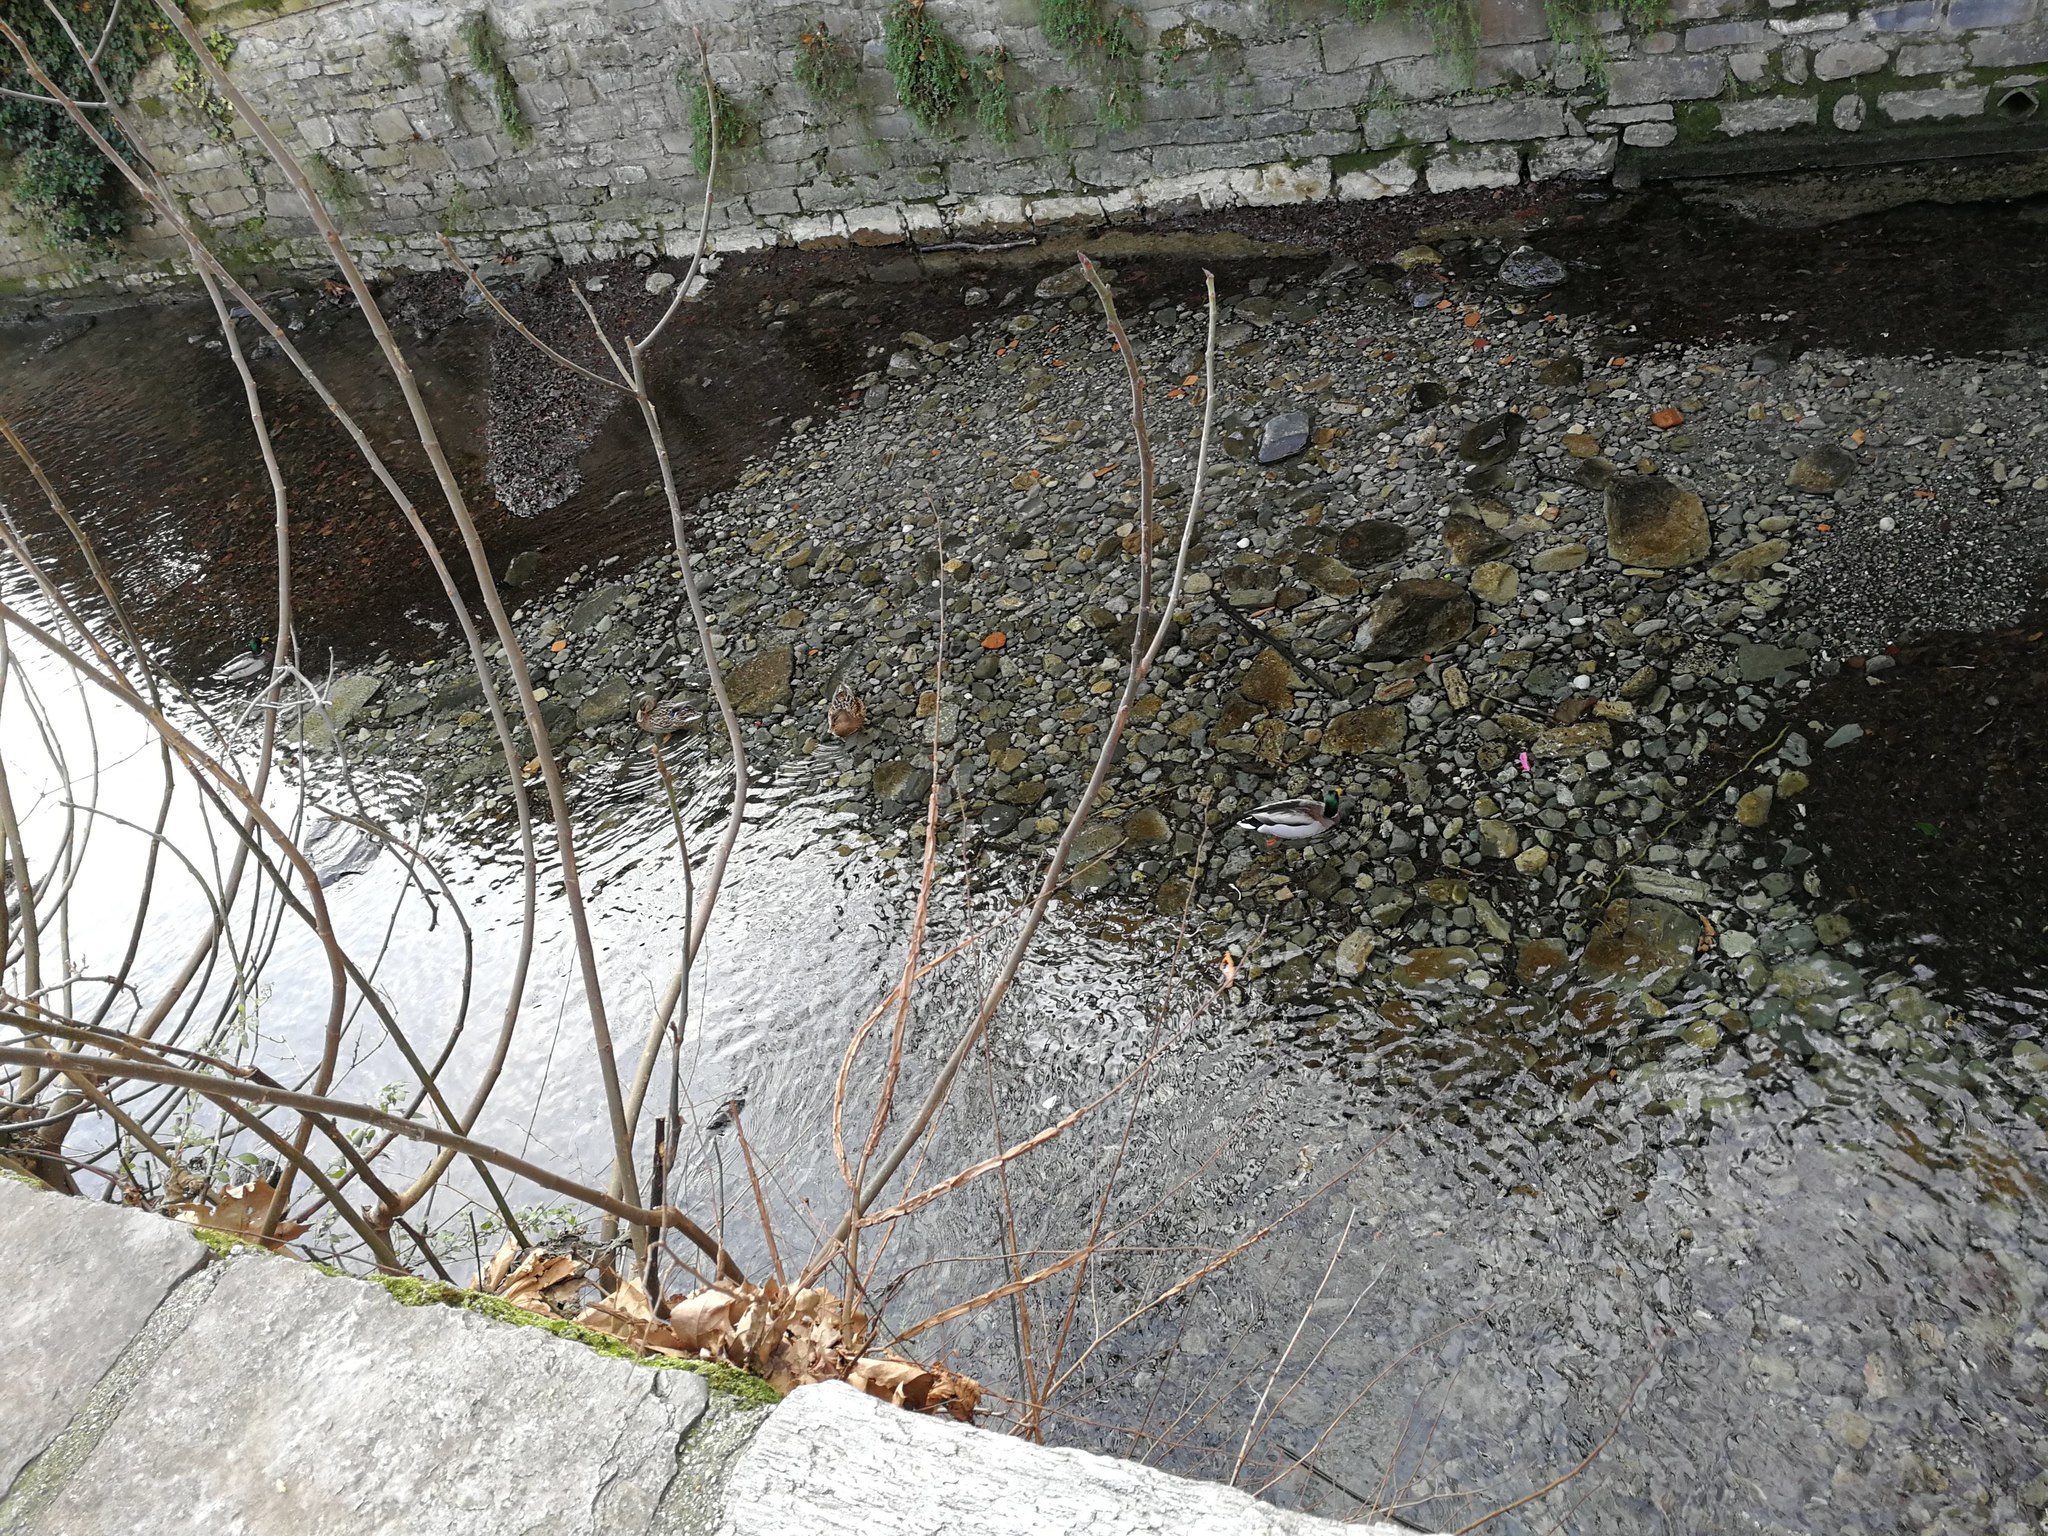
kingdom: Animalia
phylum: Chordata
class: Aves
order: Anseriformes
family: Anatidae
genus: Anas
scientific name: Anas platyrhynchos
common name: Mallard
